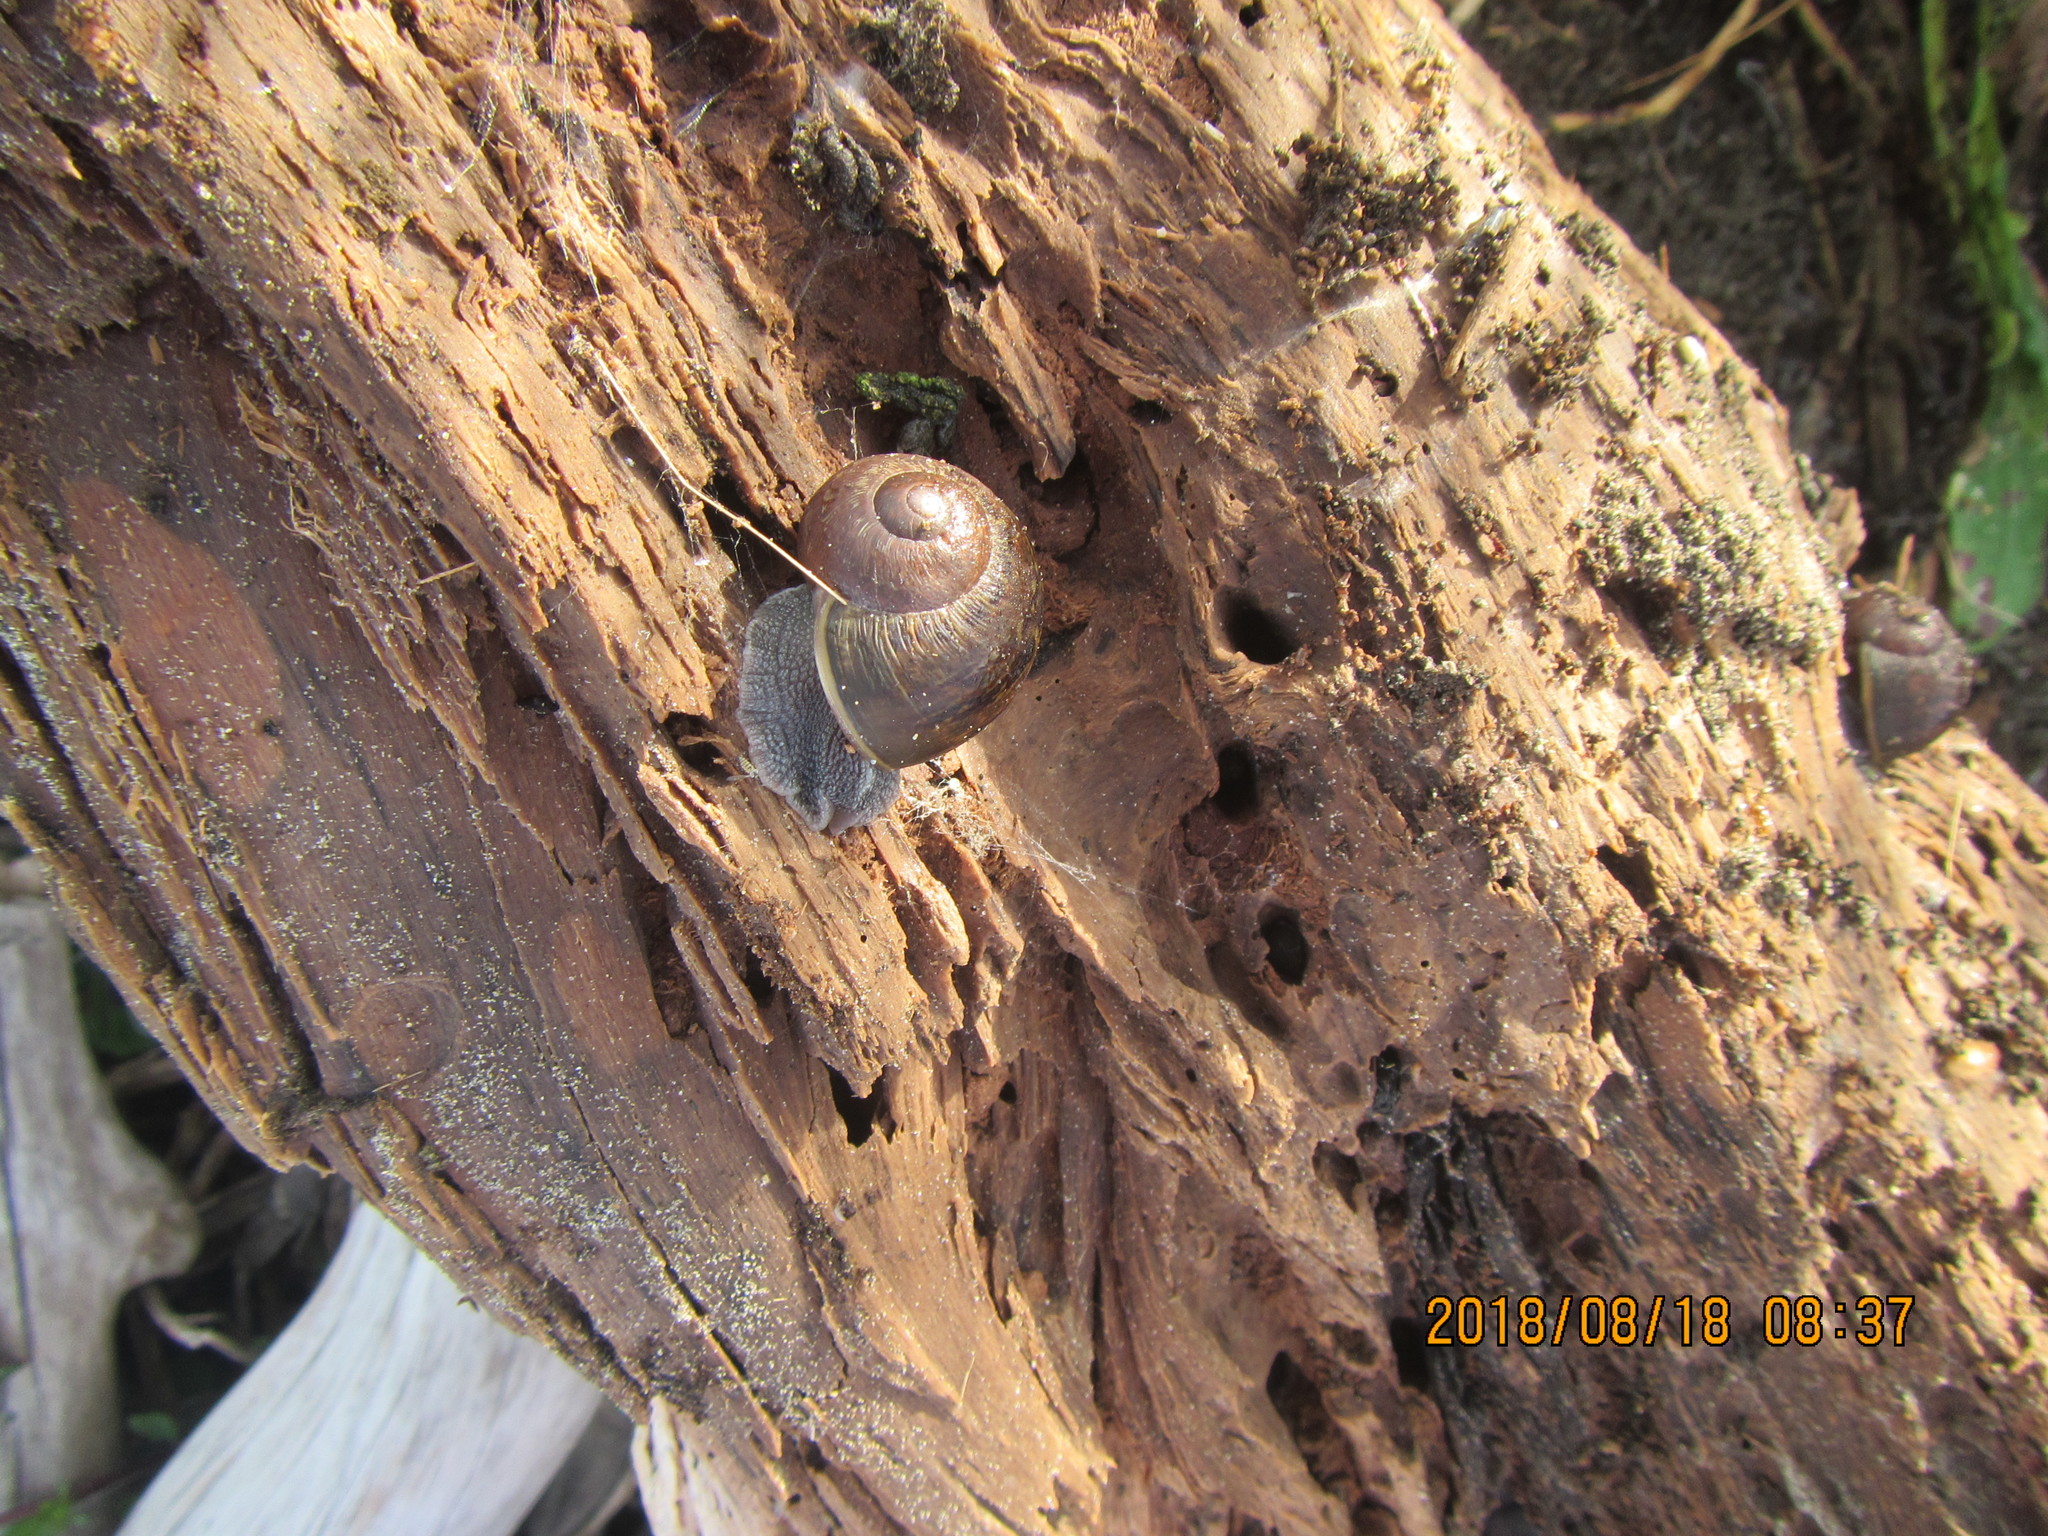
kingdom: Animalia
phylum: Mollusca
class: Gastropoda
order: Stylommatophora
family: Helicidae
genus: Cornu
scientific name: Cornu aspersum
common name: Brown garden snail
